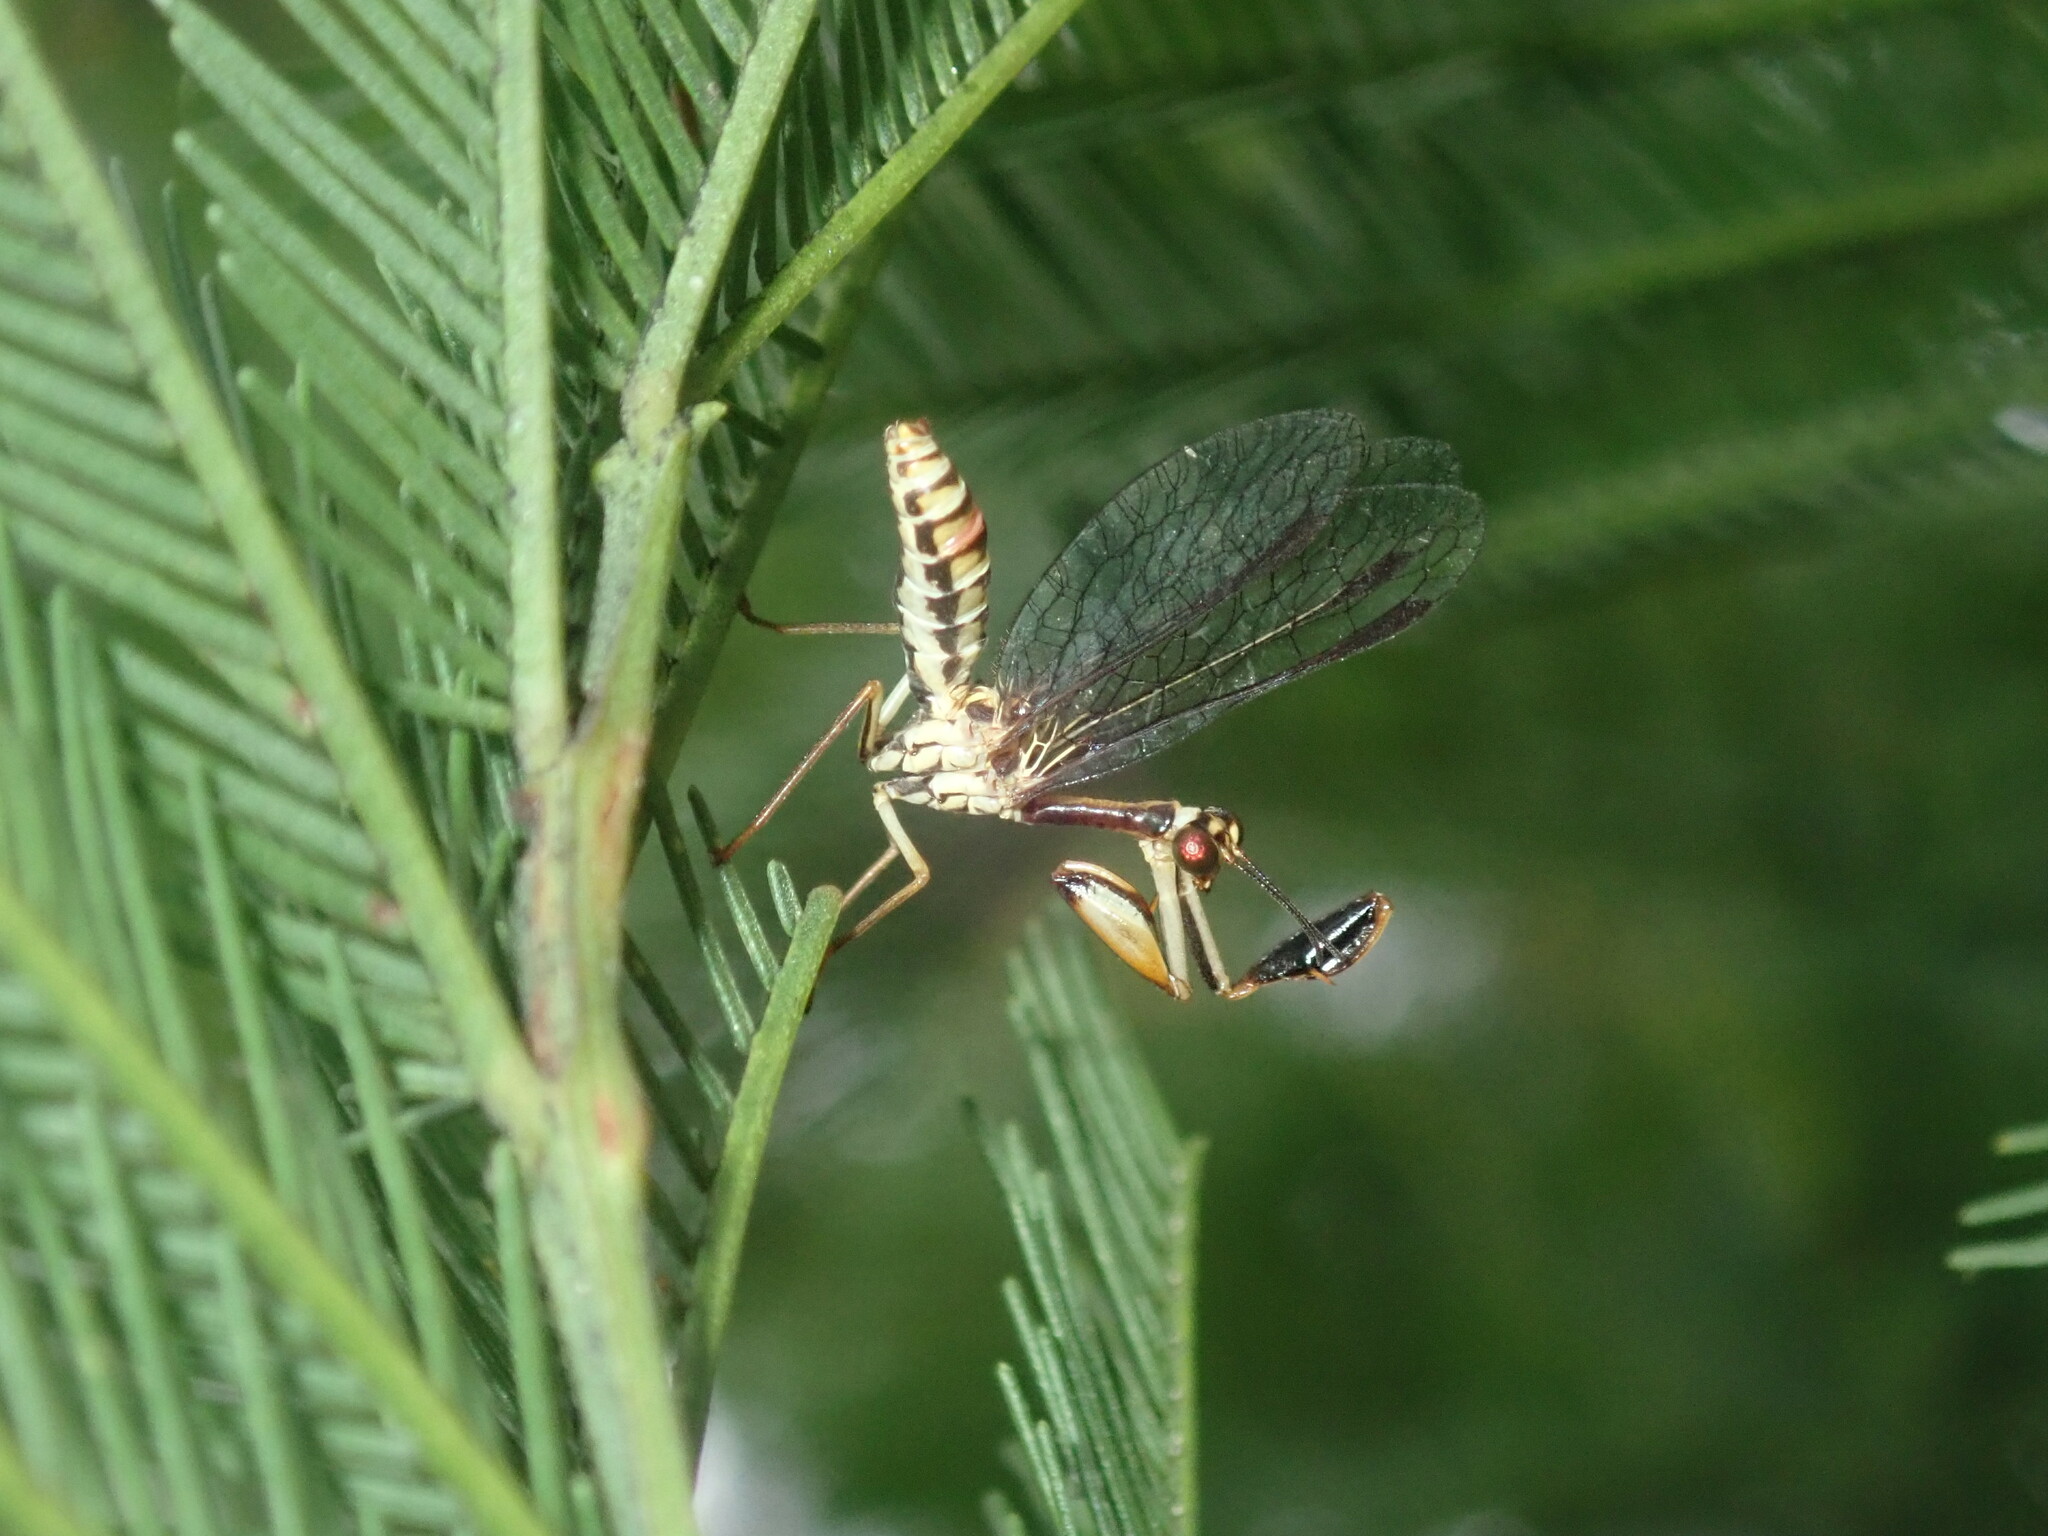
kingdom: Animalia
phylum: Arthropoda
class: Insecta
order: Neuroptera
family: Mantispidae
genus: Spaminta
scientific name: Spaminta minjerribae
